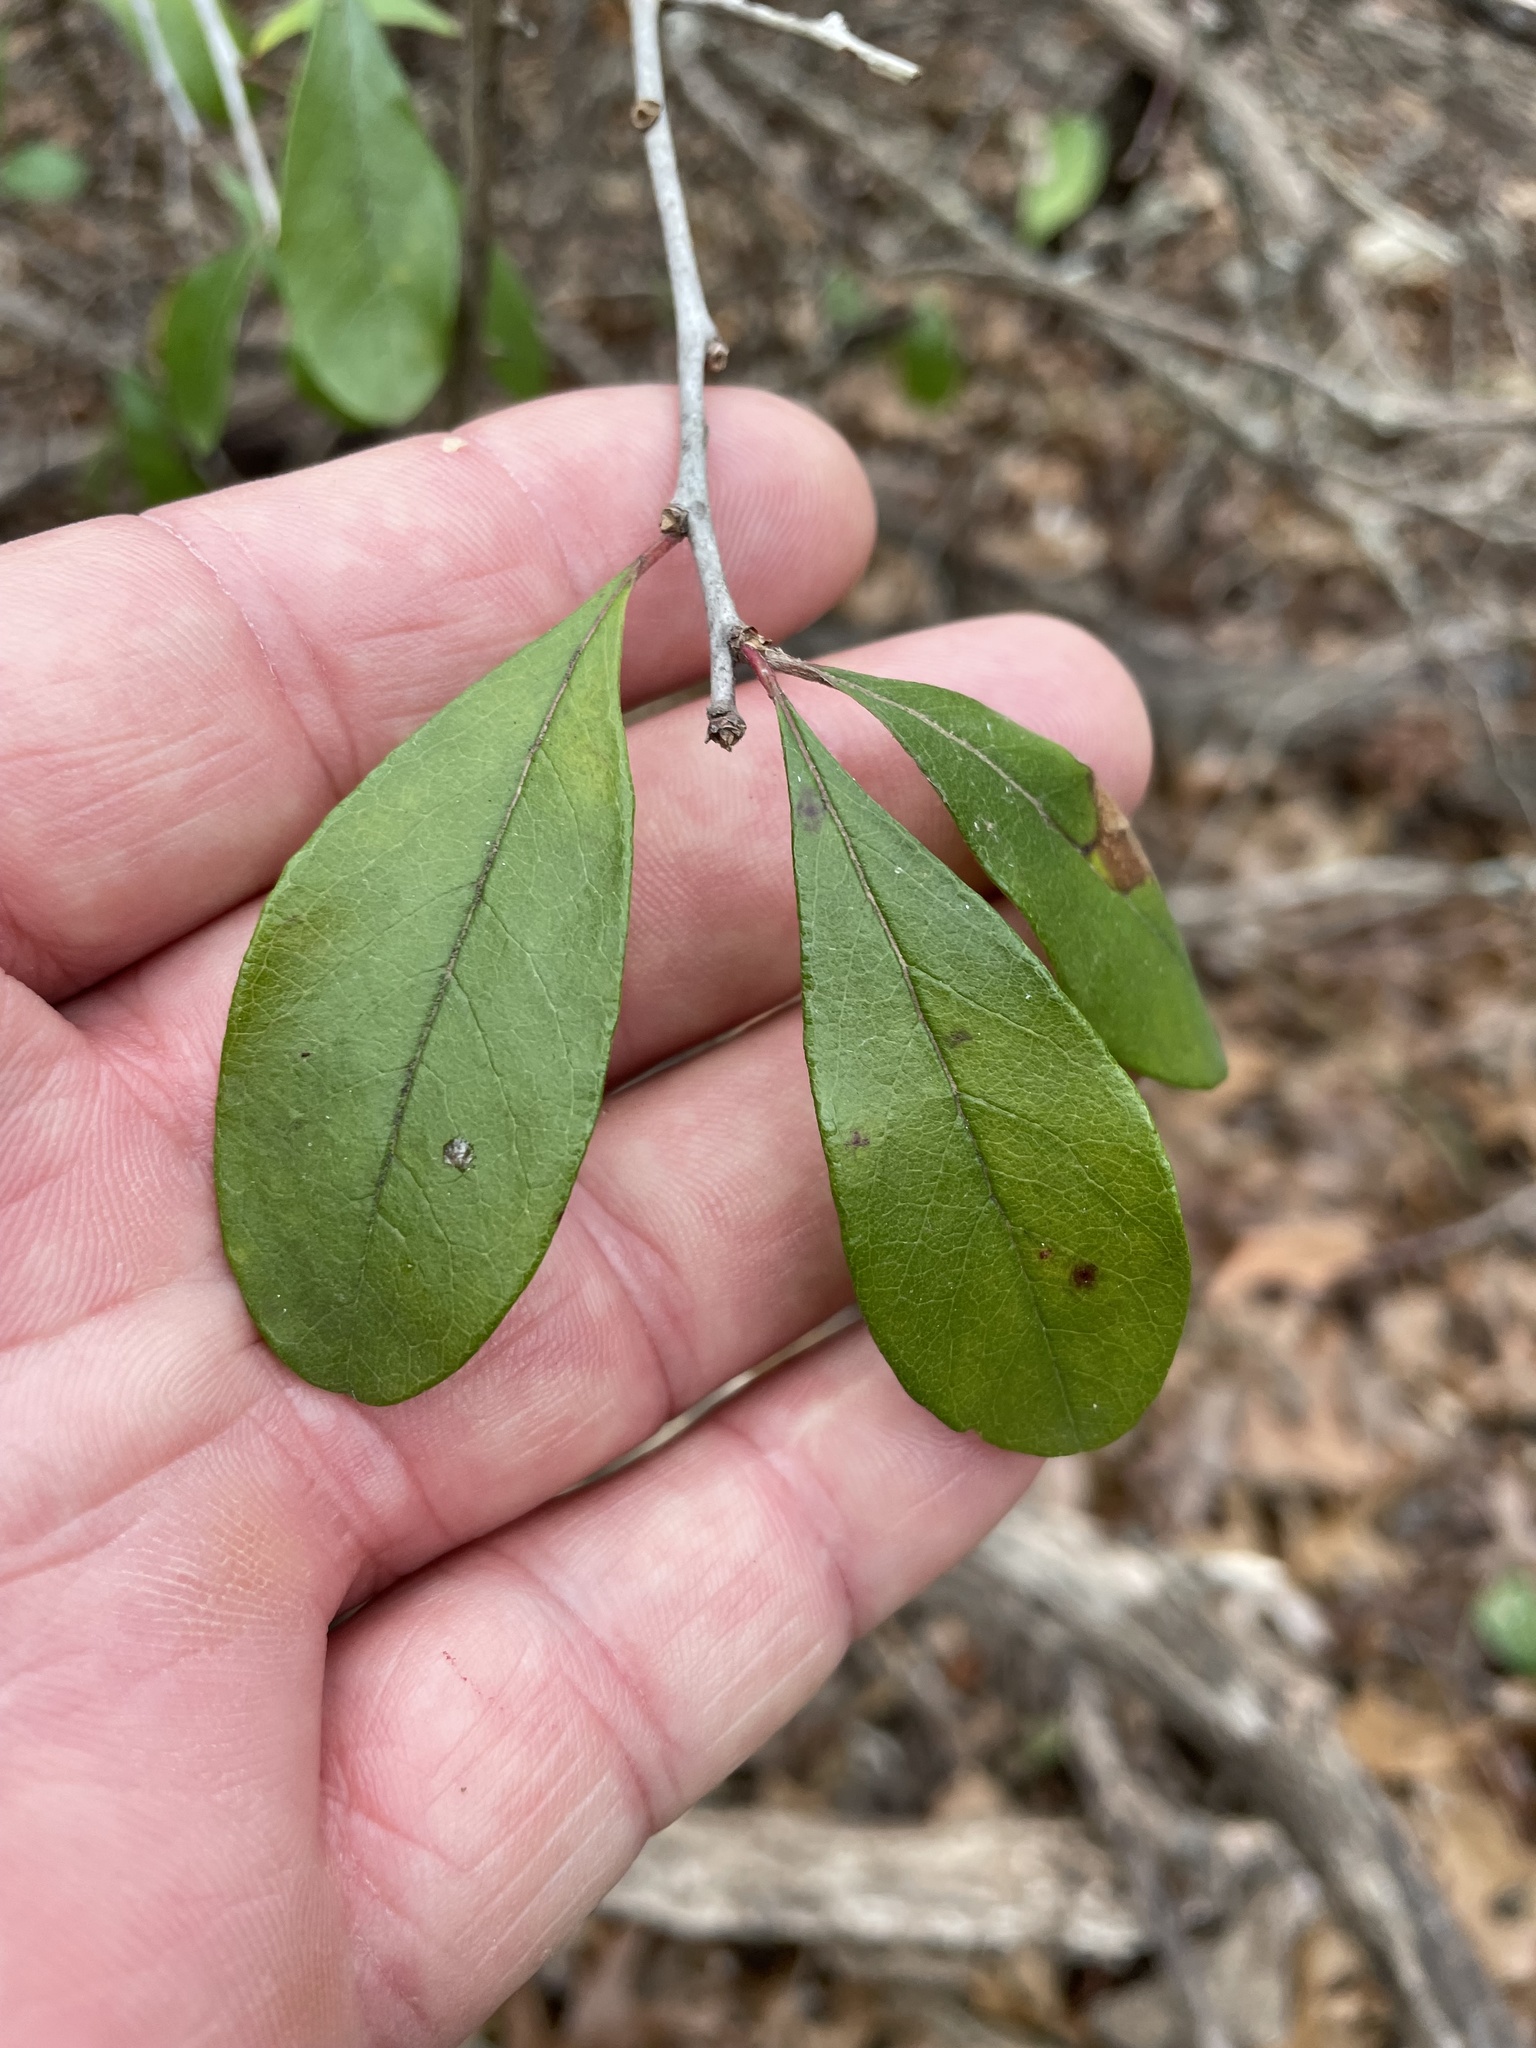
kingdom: Plantae
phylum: Tracheophyta
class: Magnoliopsida
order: Ericales
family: Sapotaceae
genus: Sideroxylon
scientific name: Sideroxylon lanuginosum
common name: Chittamwood
